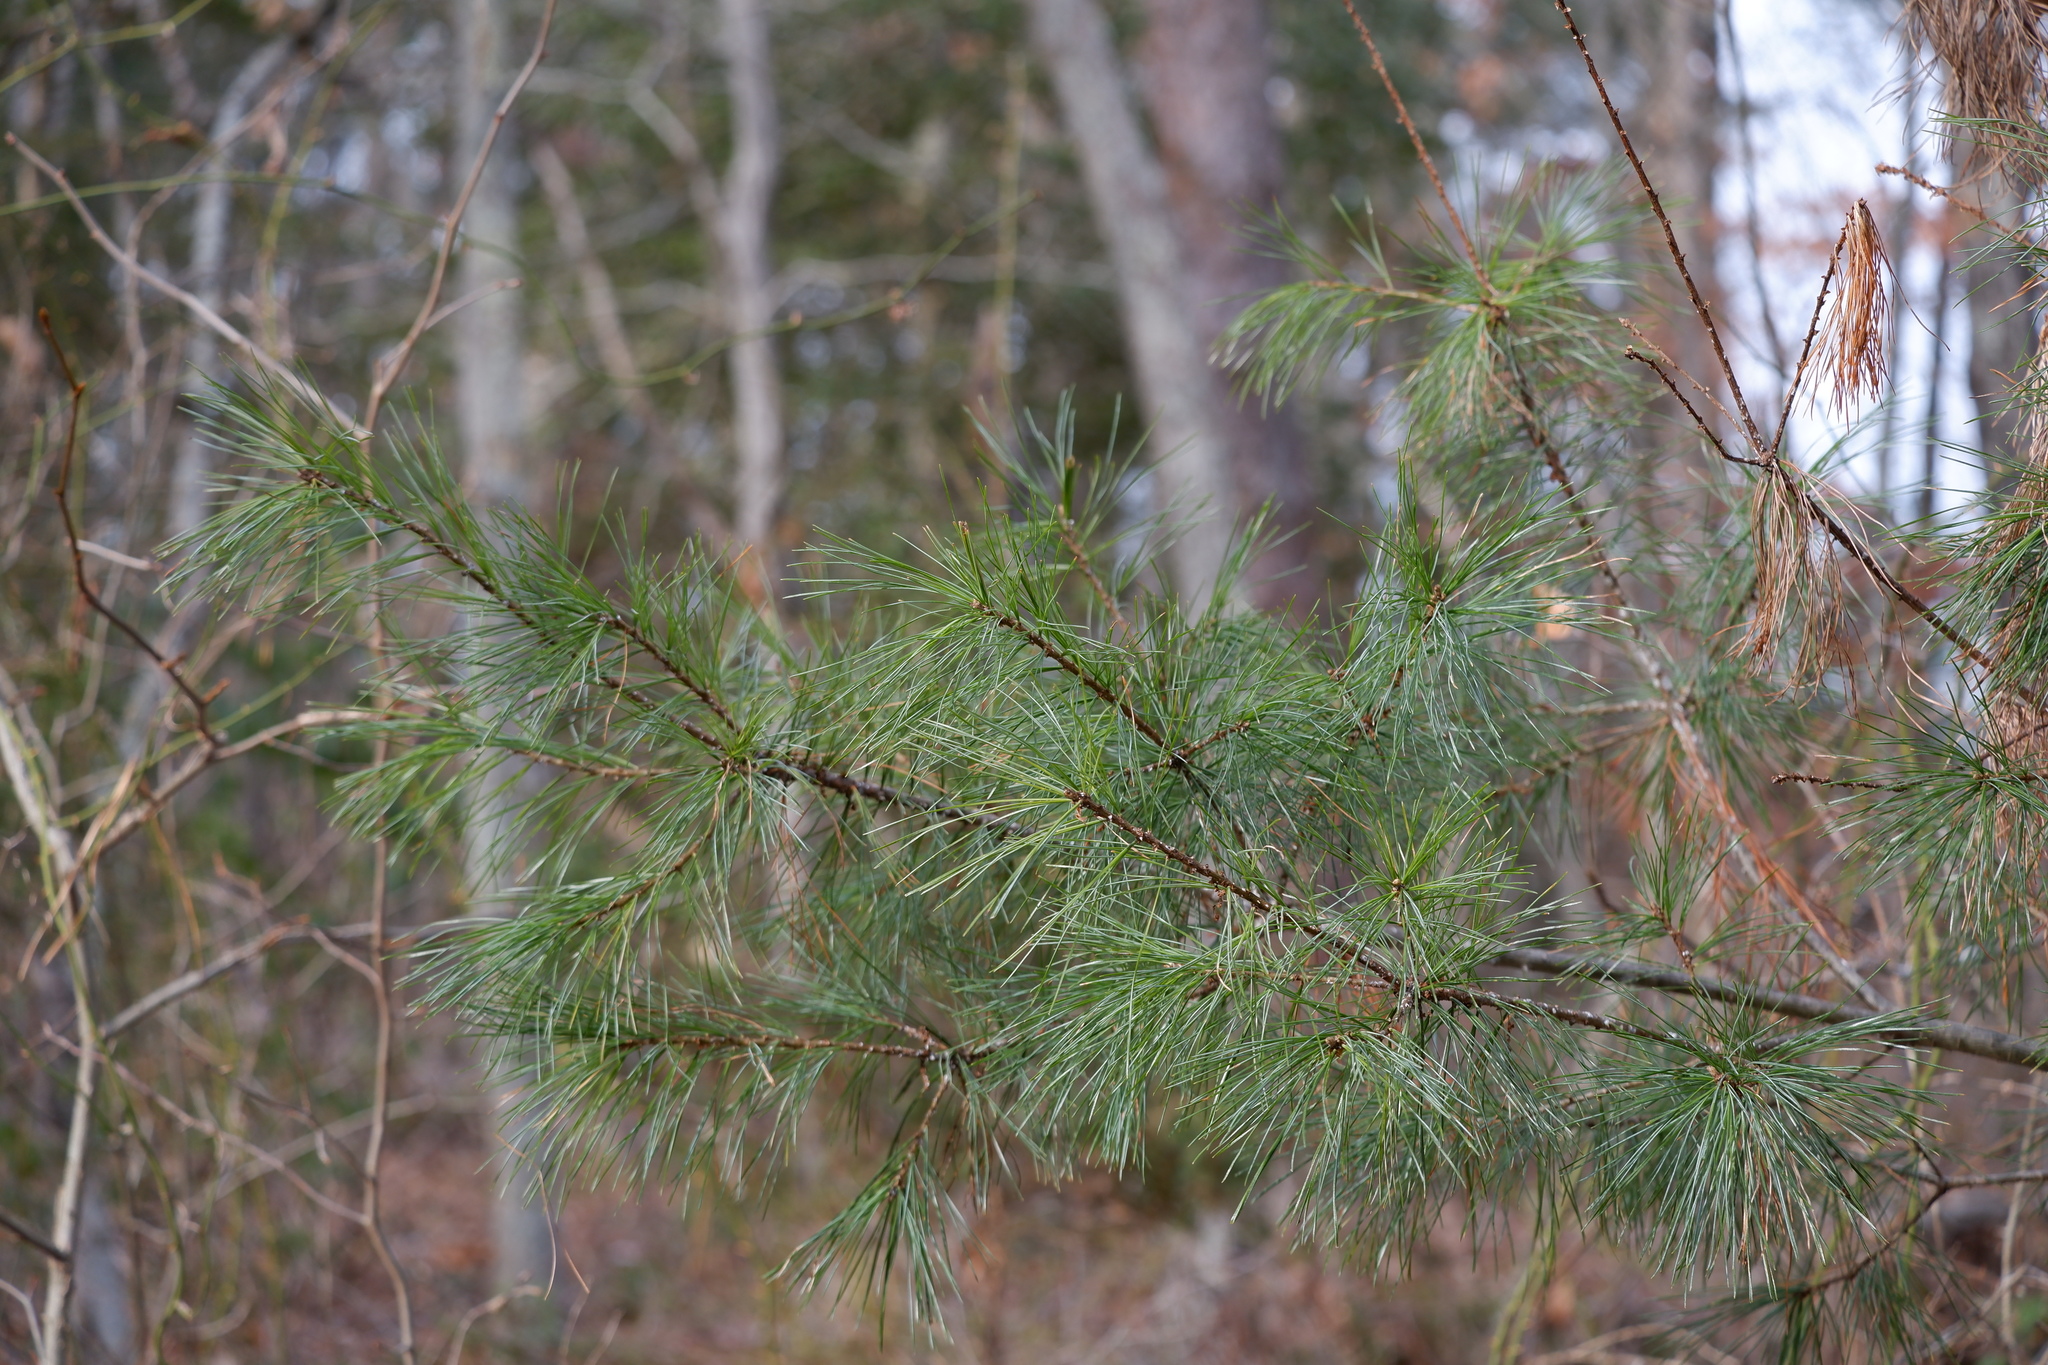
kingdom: Plantae
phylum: Tracheophyta
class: Pinopsida
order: Pinales
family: Pinaceae
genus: Pinus
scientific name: Pinus strobus
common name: Weymouth pine
